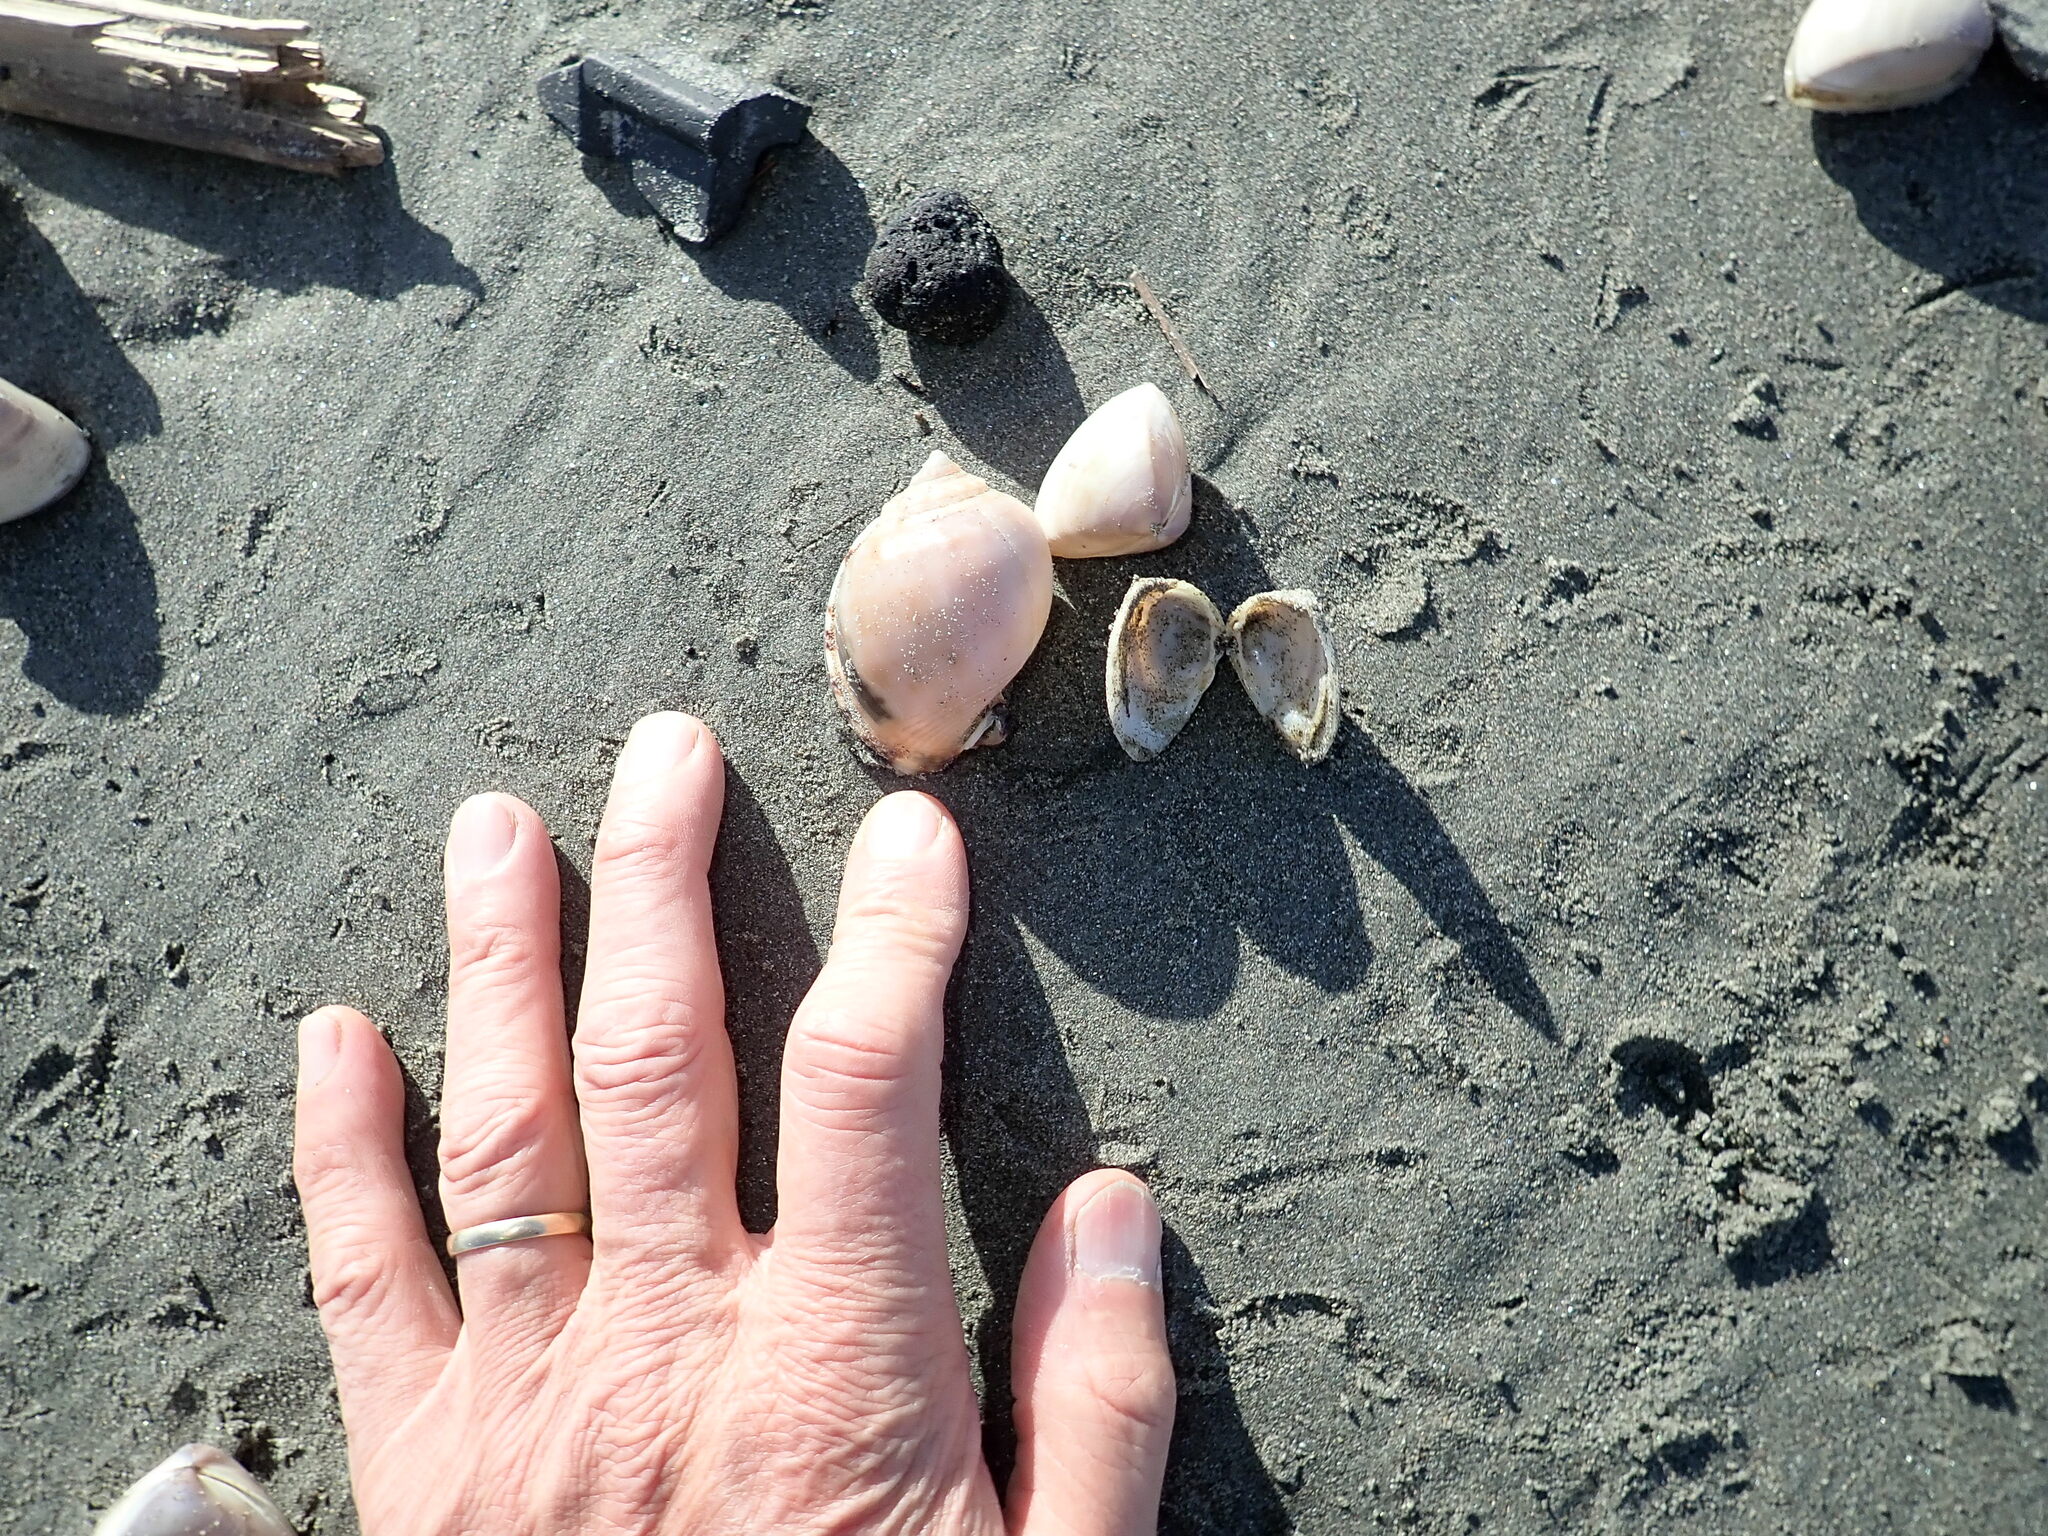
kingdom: Animalia
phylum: Mollusca
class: Gastropoda
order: Littorinimorpha
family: Cassidae
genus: Semicassis
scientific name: Semicassis pyrum
